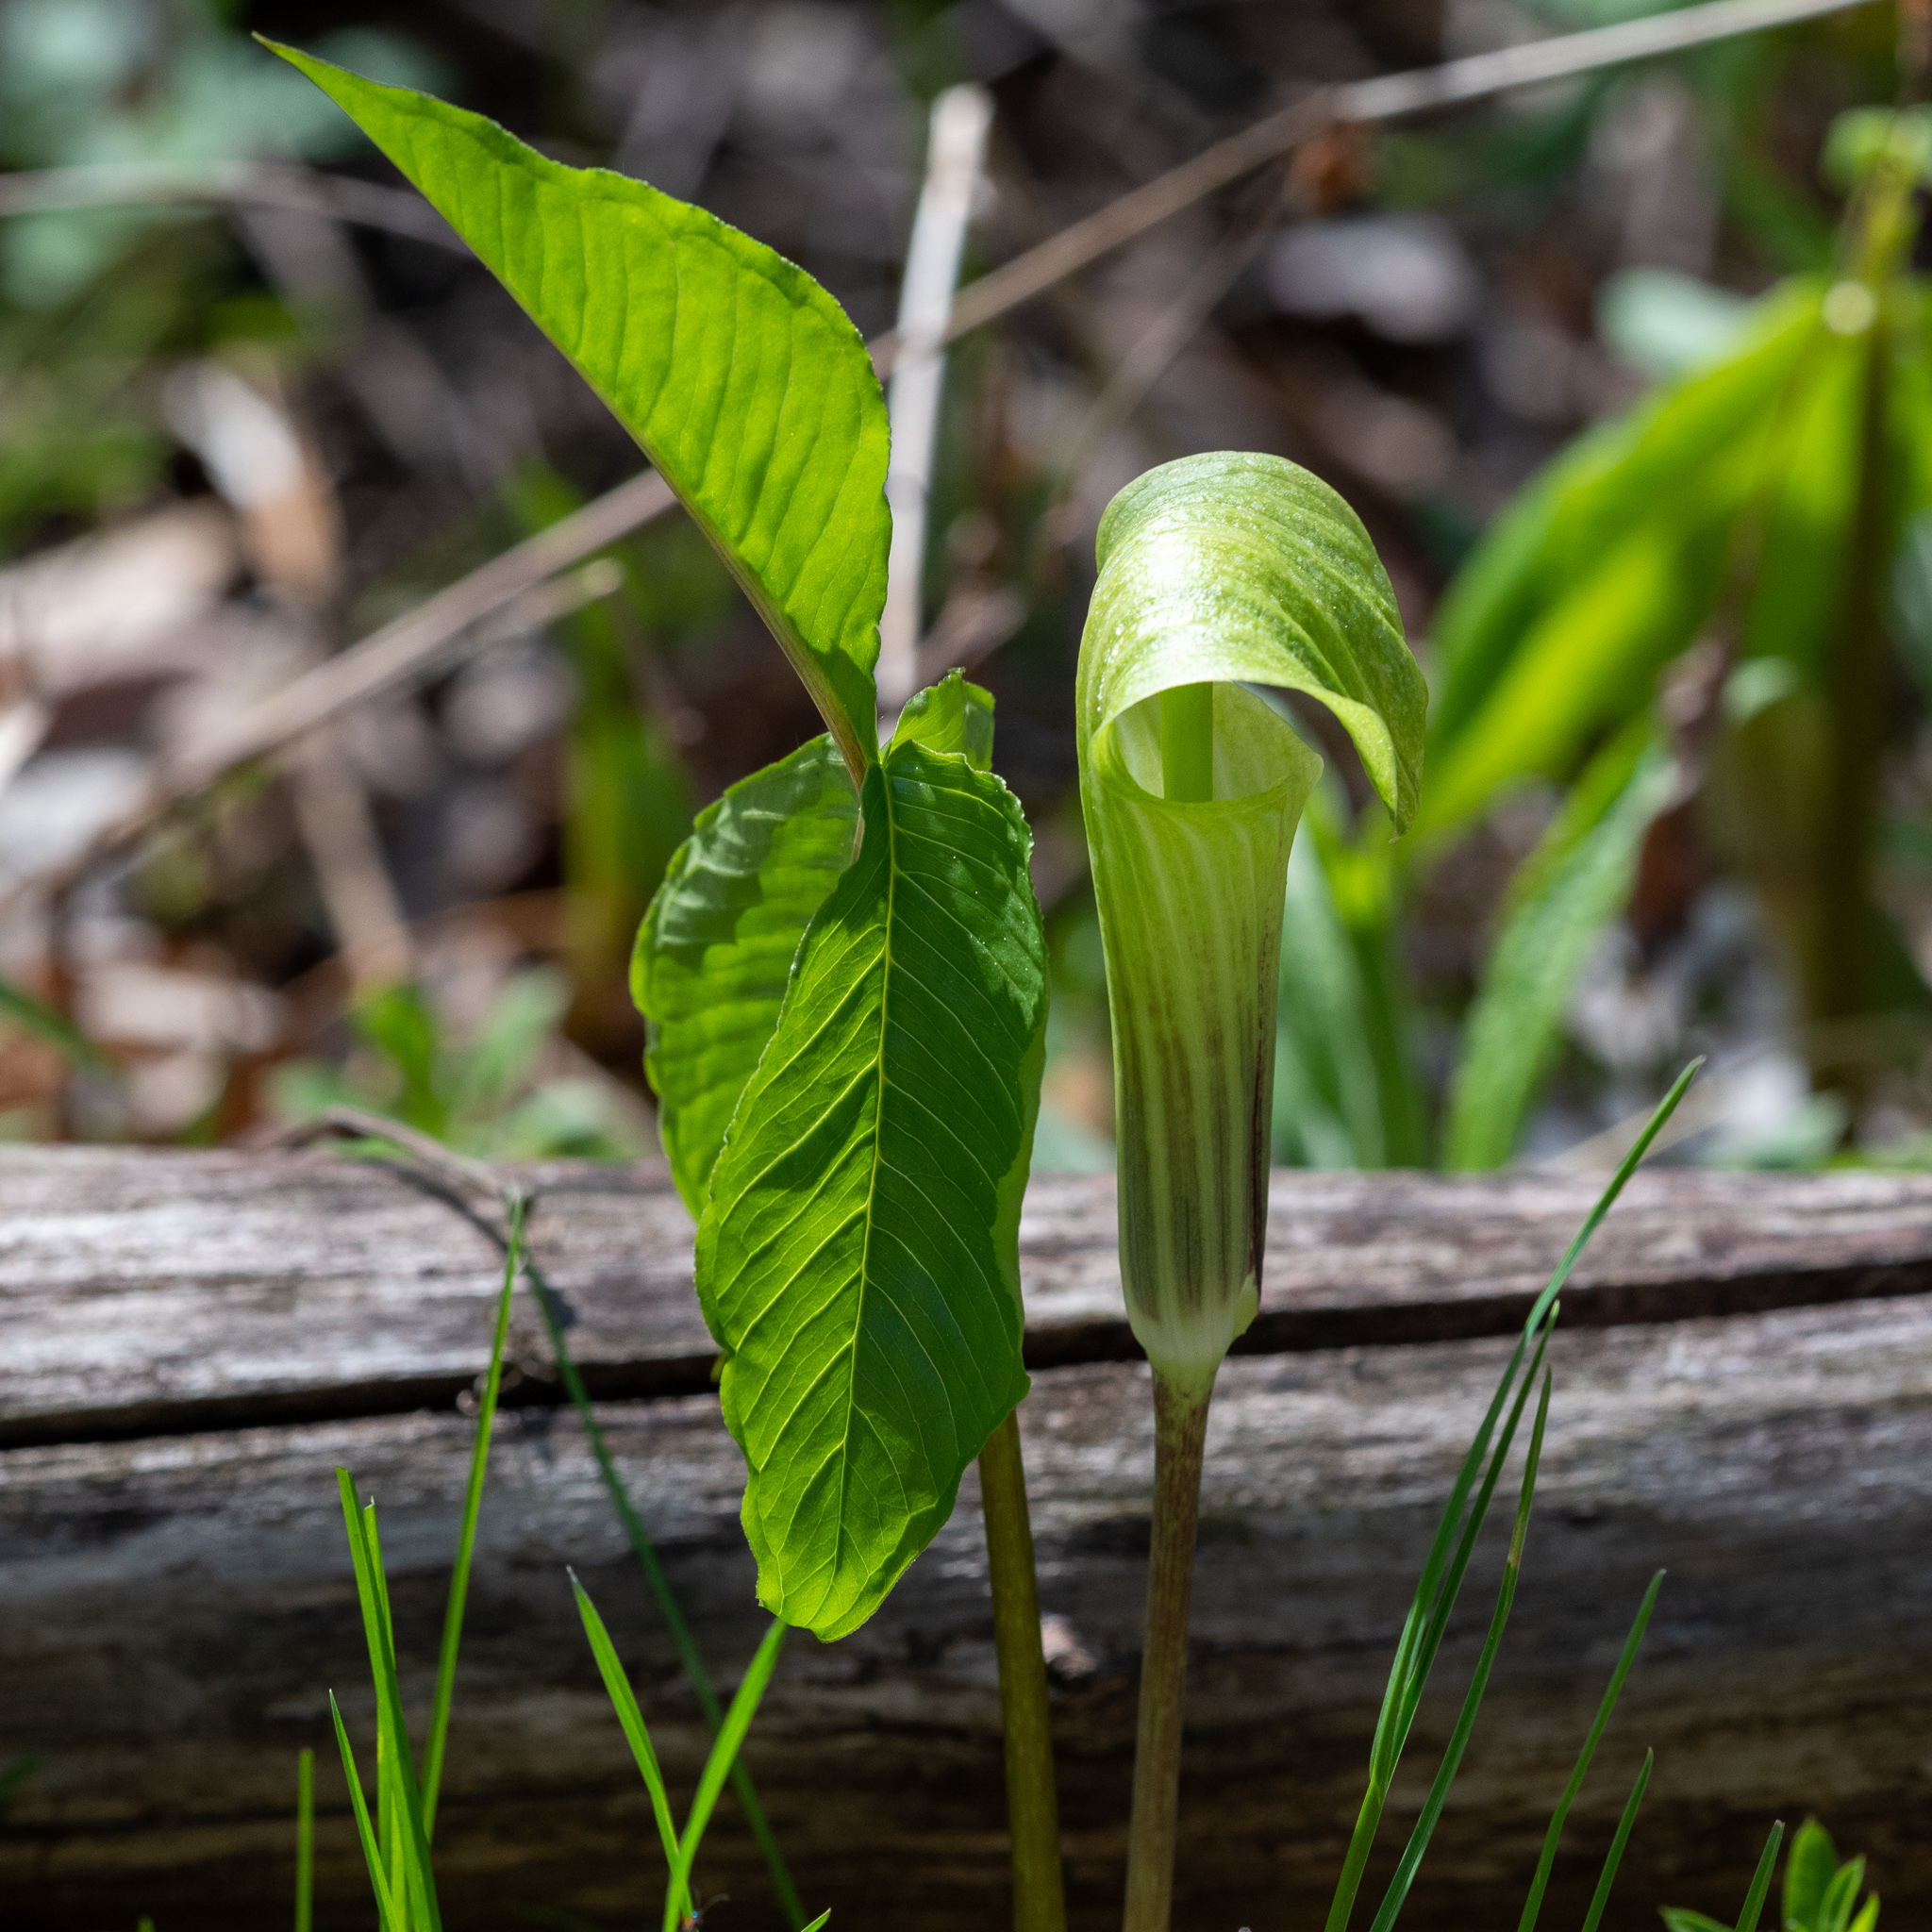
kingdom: Plantae
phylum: Tracheophyta
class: Liliopsida
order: Alismatales
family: Araceae
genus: Arisaema
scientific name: Arisaema triphyllum
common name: Jack-in-the-pulpit
